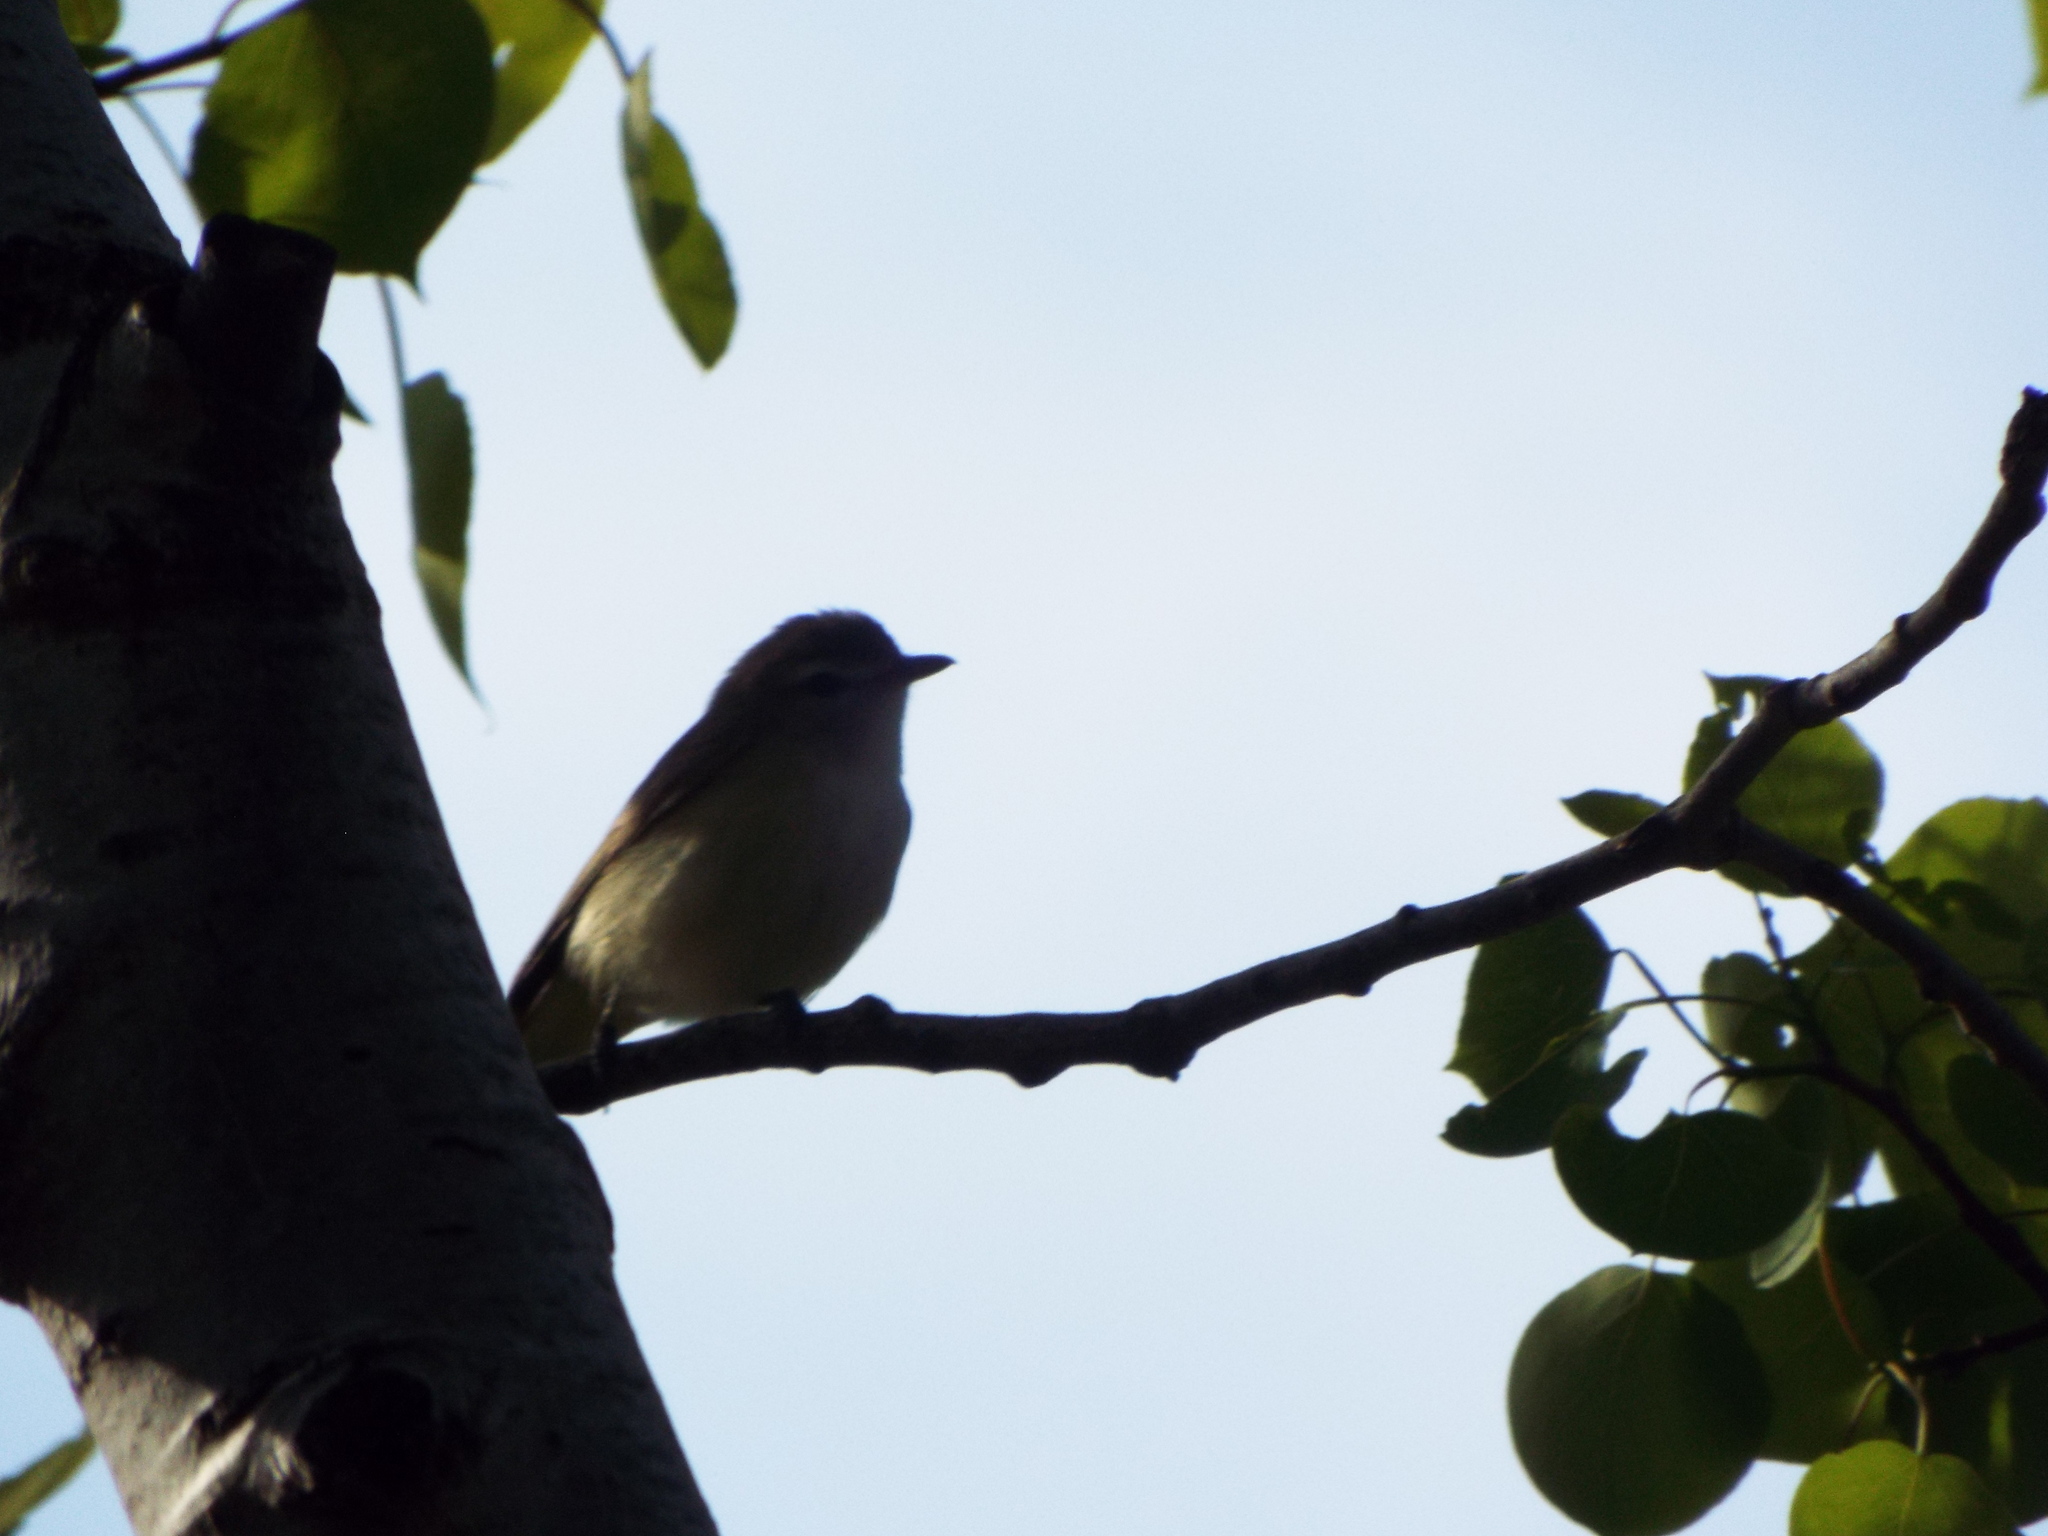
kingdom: Animalia
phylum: Chordata
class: Aves
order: Passeriformes
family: Vireonidae
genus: Vireo
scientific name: Vireo gilvus
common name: Warbling vireo
